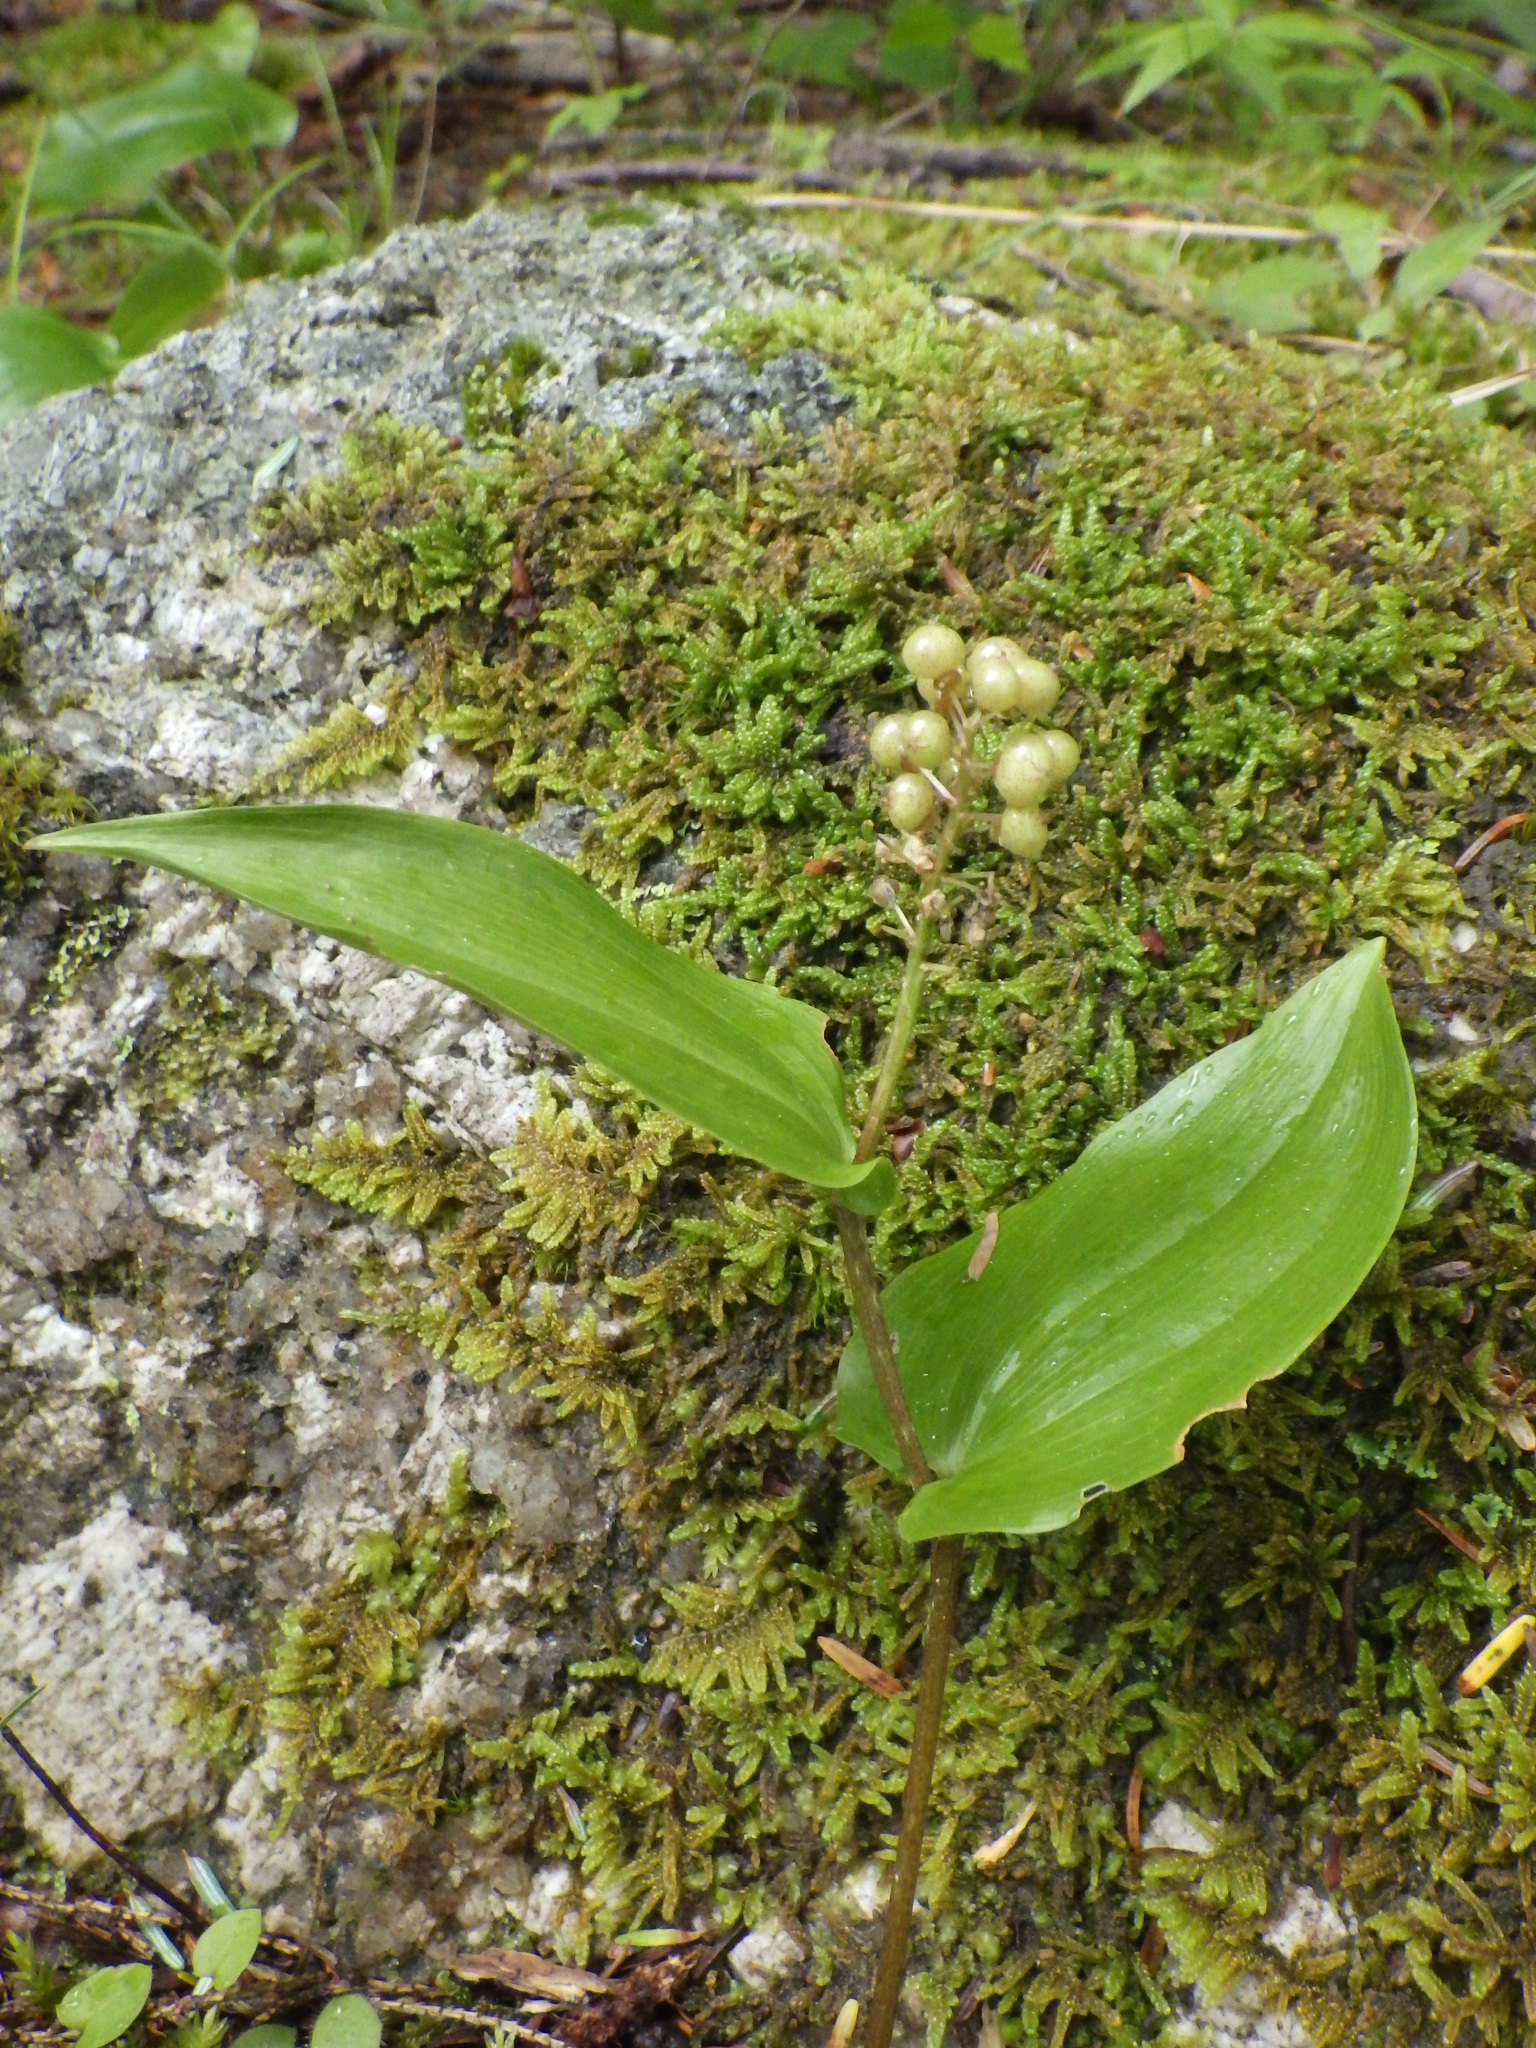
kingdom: Plantae
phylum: Tracheophyta
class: Liliopsida
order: Asparagales
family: Asparagaceae
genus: Maianthemum
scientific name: Maianthemum canadense
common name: False lily-of-the-valley
